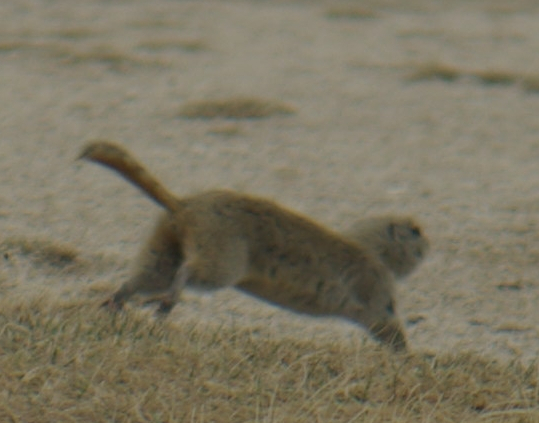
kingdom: Animalia
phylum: Chordata
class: Mammalia
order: Rodentia
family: Sciuridae
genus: Urocitellus
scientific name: Urocitellus richardsonii
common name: Richardson's ground squirrel
